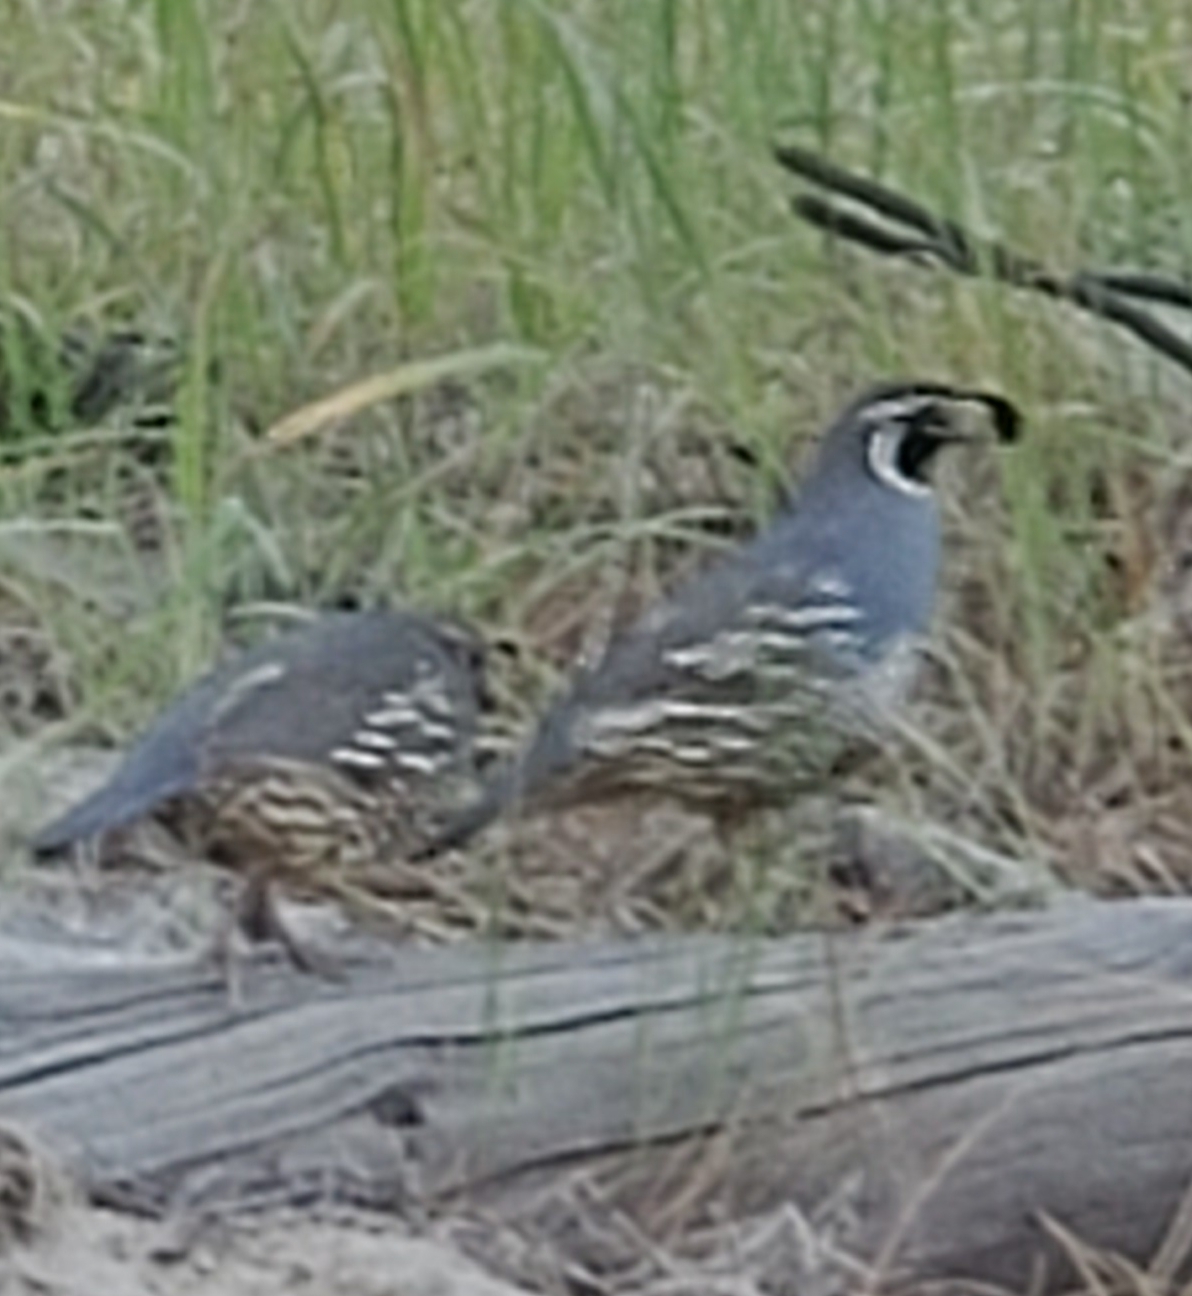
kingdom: Animalia
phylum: Chordata
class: Aves
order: Galliformes
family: Odontophoridae
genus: Callipepla
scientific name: Callipepla californica
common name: California quail
